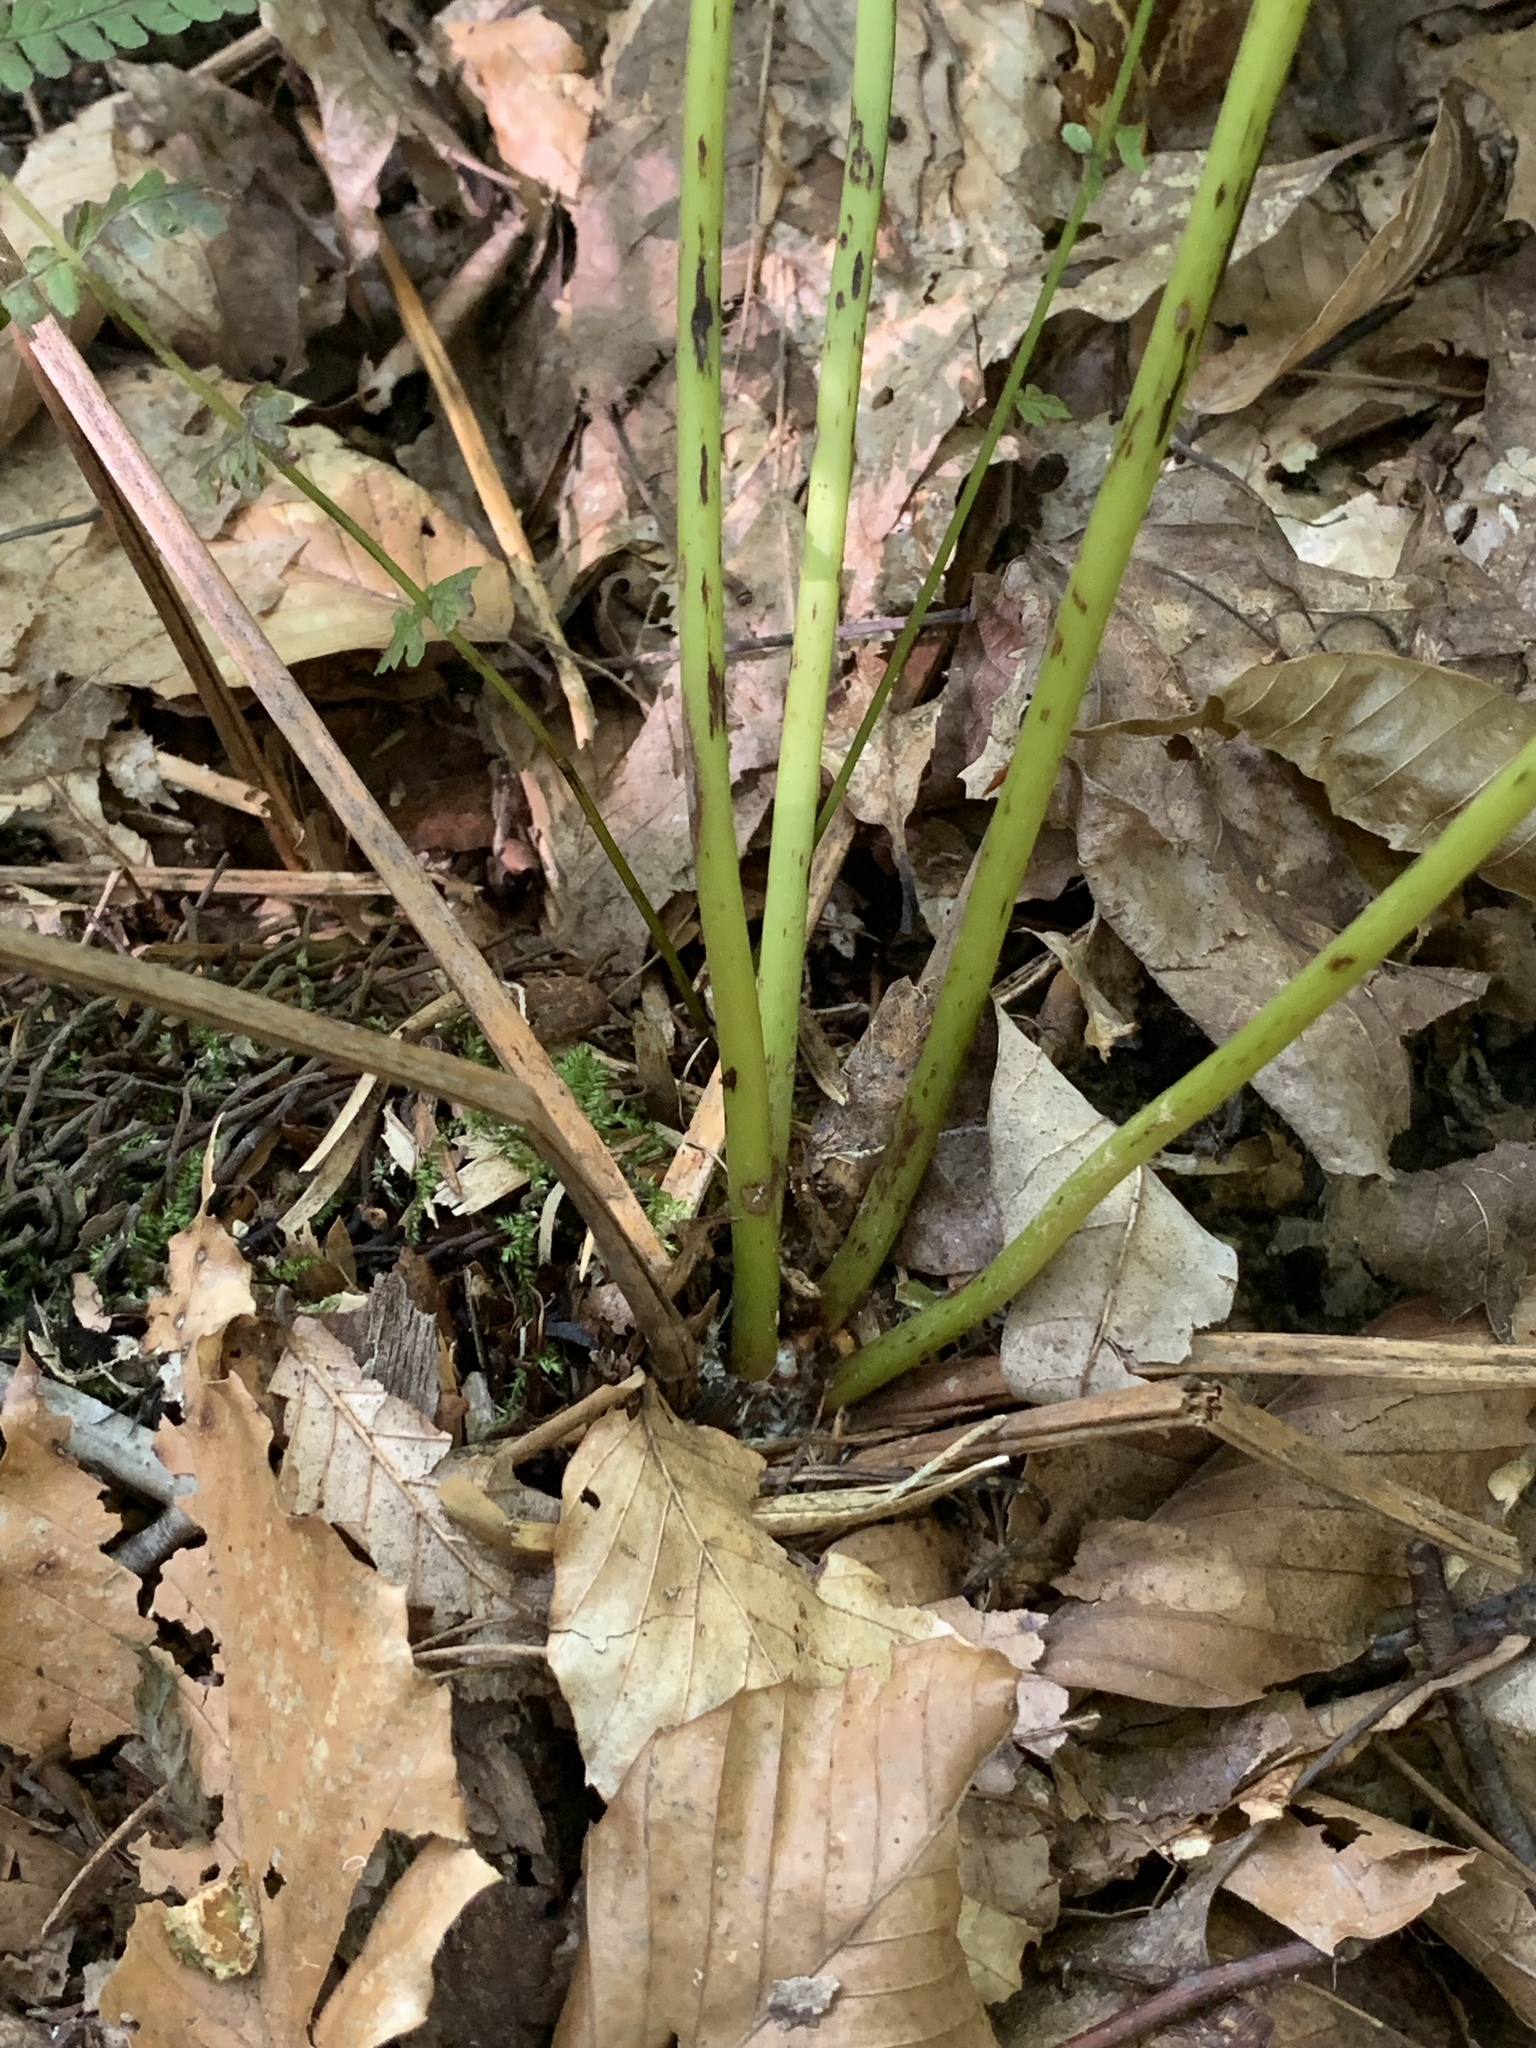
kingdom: Plantae
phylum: Tracheophyta
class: Polypodiopsida
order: Osmundales
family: Osmundaceae
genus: Claytosmunda
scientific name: Claytosmunda claytoniana
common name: Clayton's fern
